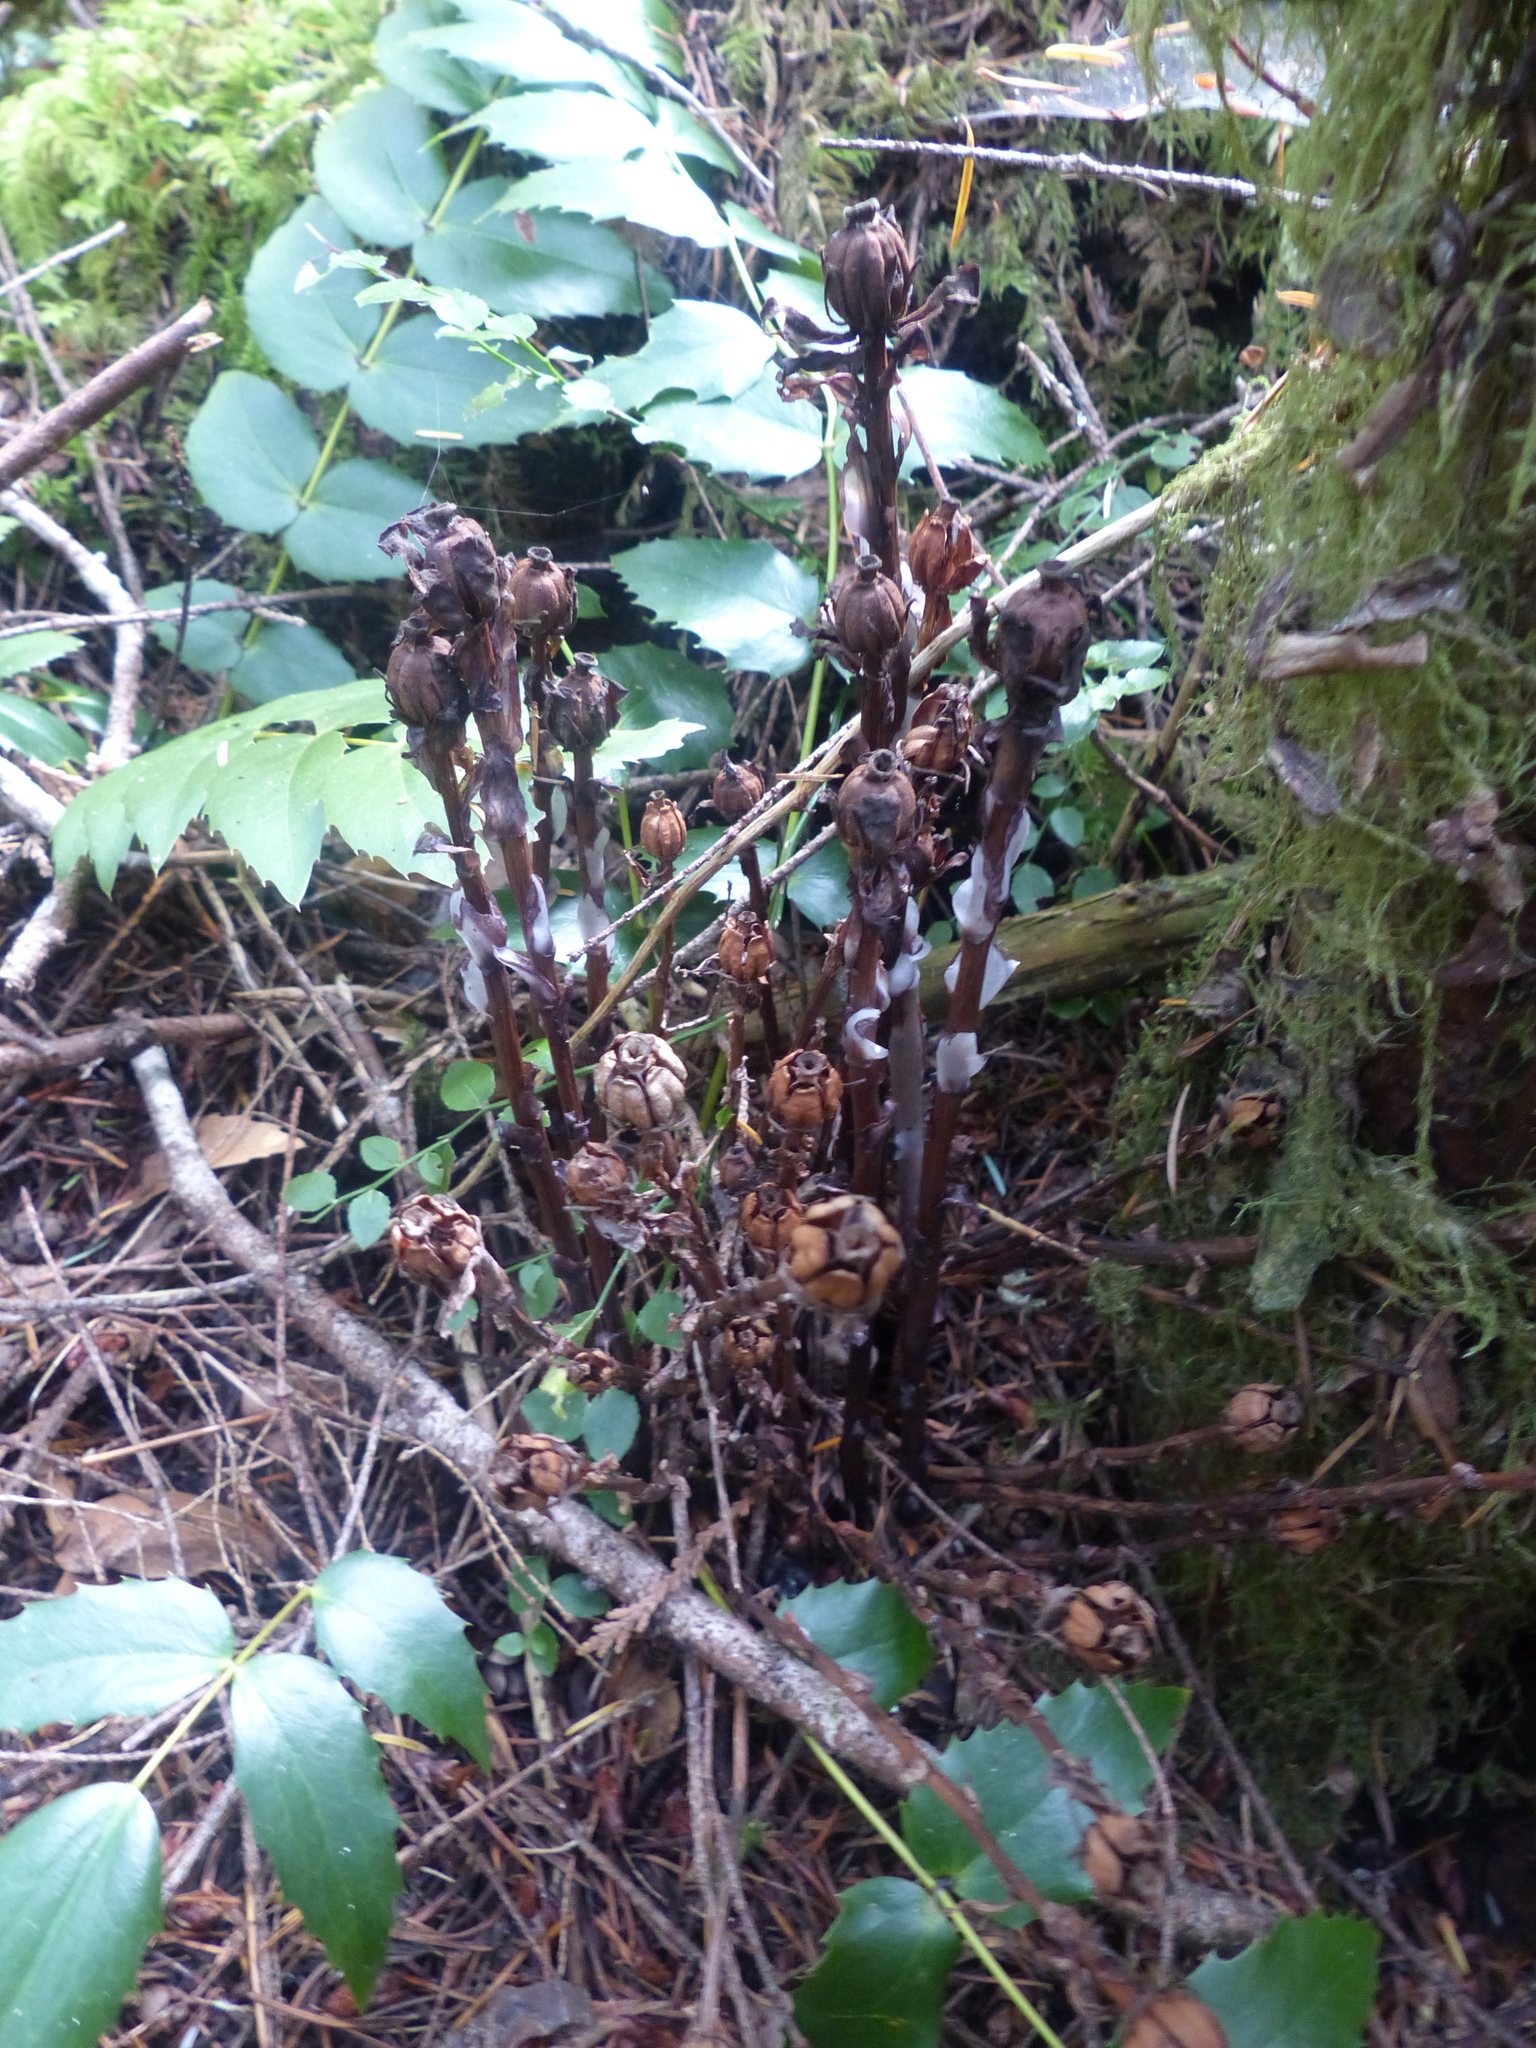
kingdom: Plantae
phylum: Tracheophyta
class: Magnoliopsida
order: Ericales
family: Ericaceae
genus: Monotropa
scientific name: Monotropa uniflora
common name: Convulsion root
